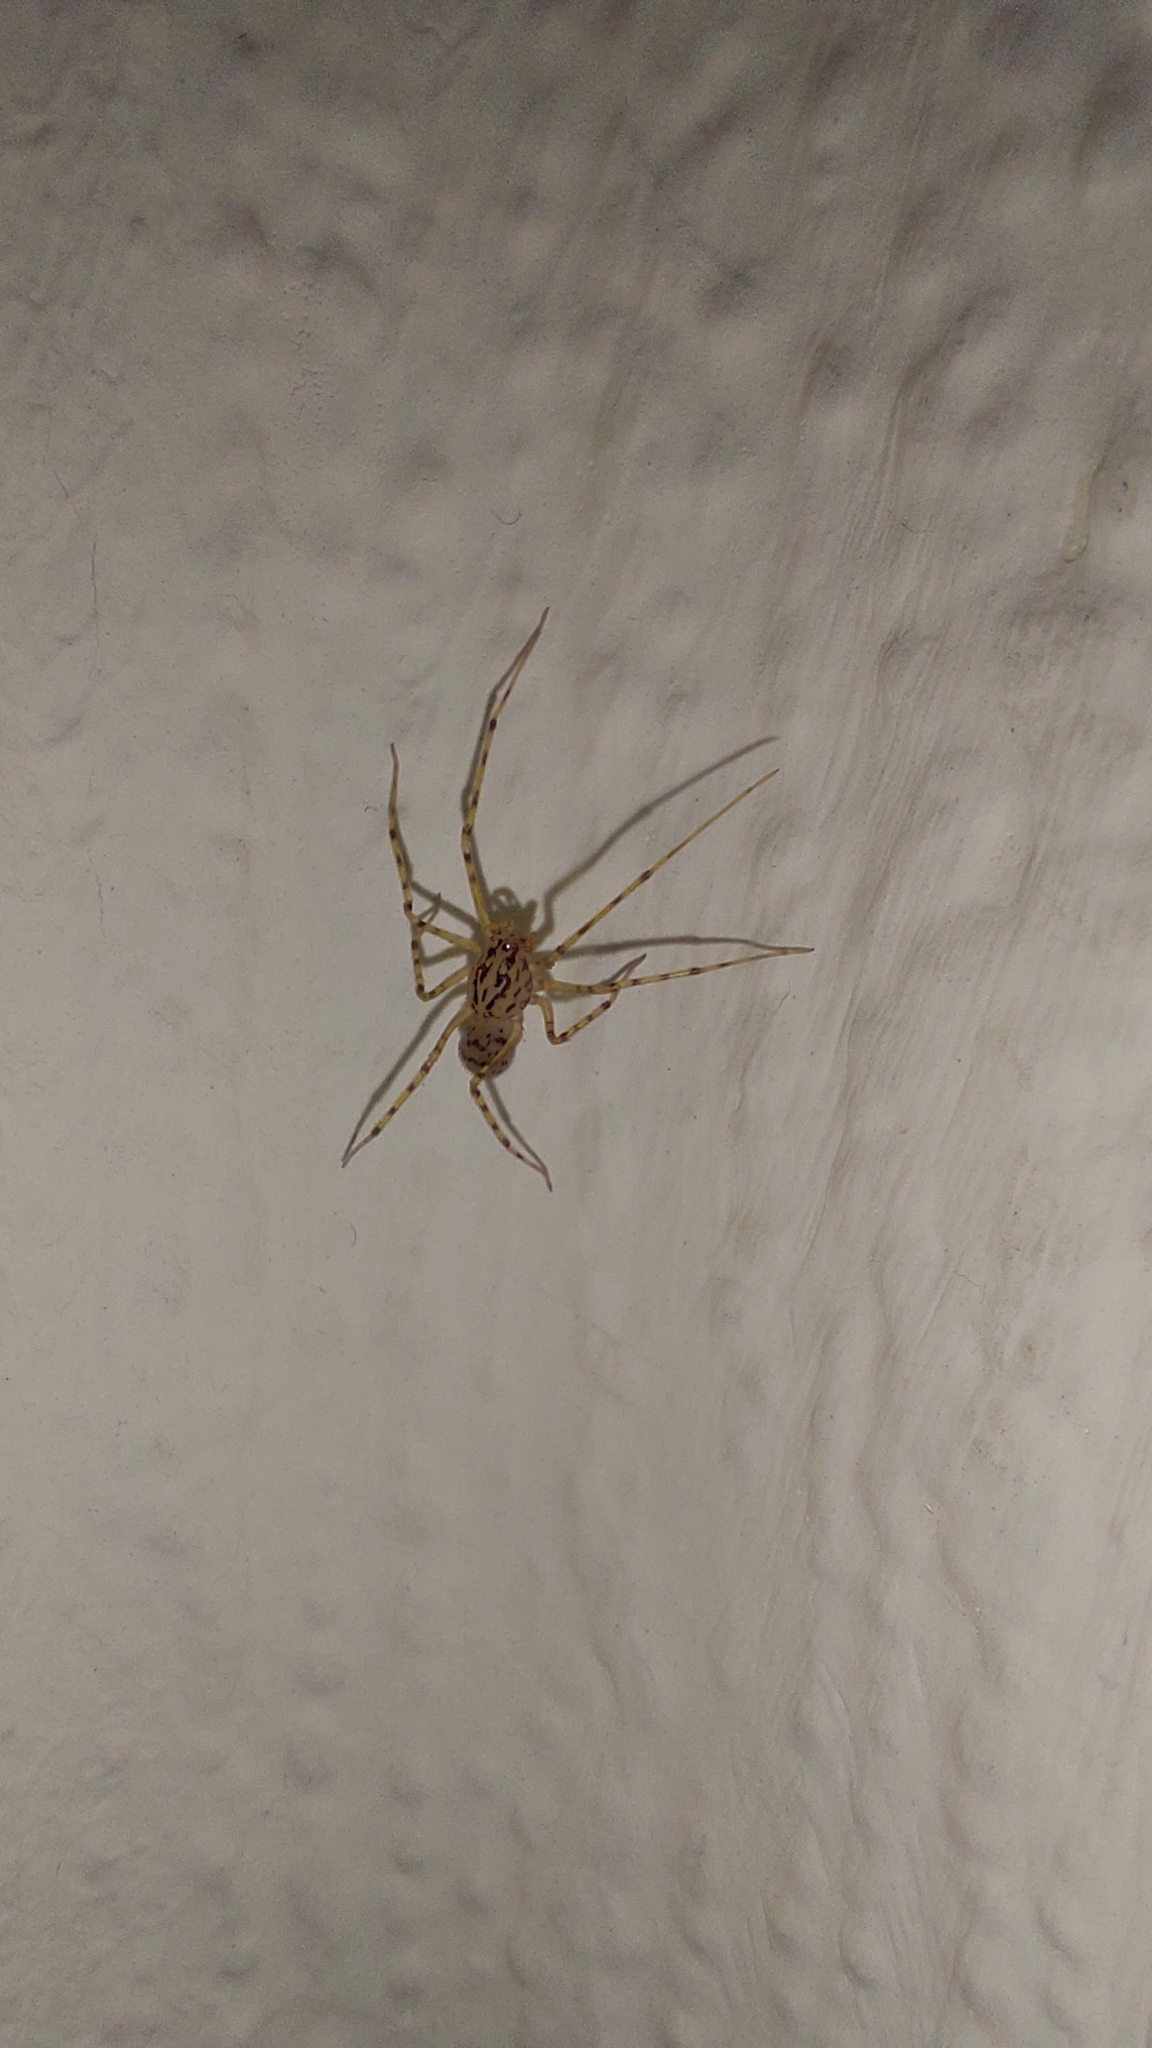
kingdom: Animalia
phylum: Arthropoda
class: Arachnida
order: Araneae
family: Scytodidae
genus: Scytodes
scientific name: Scytodes thoracica
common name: Spitting spider
